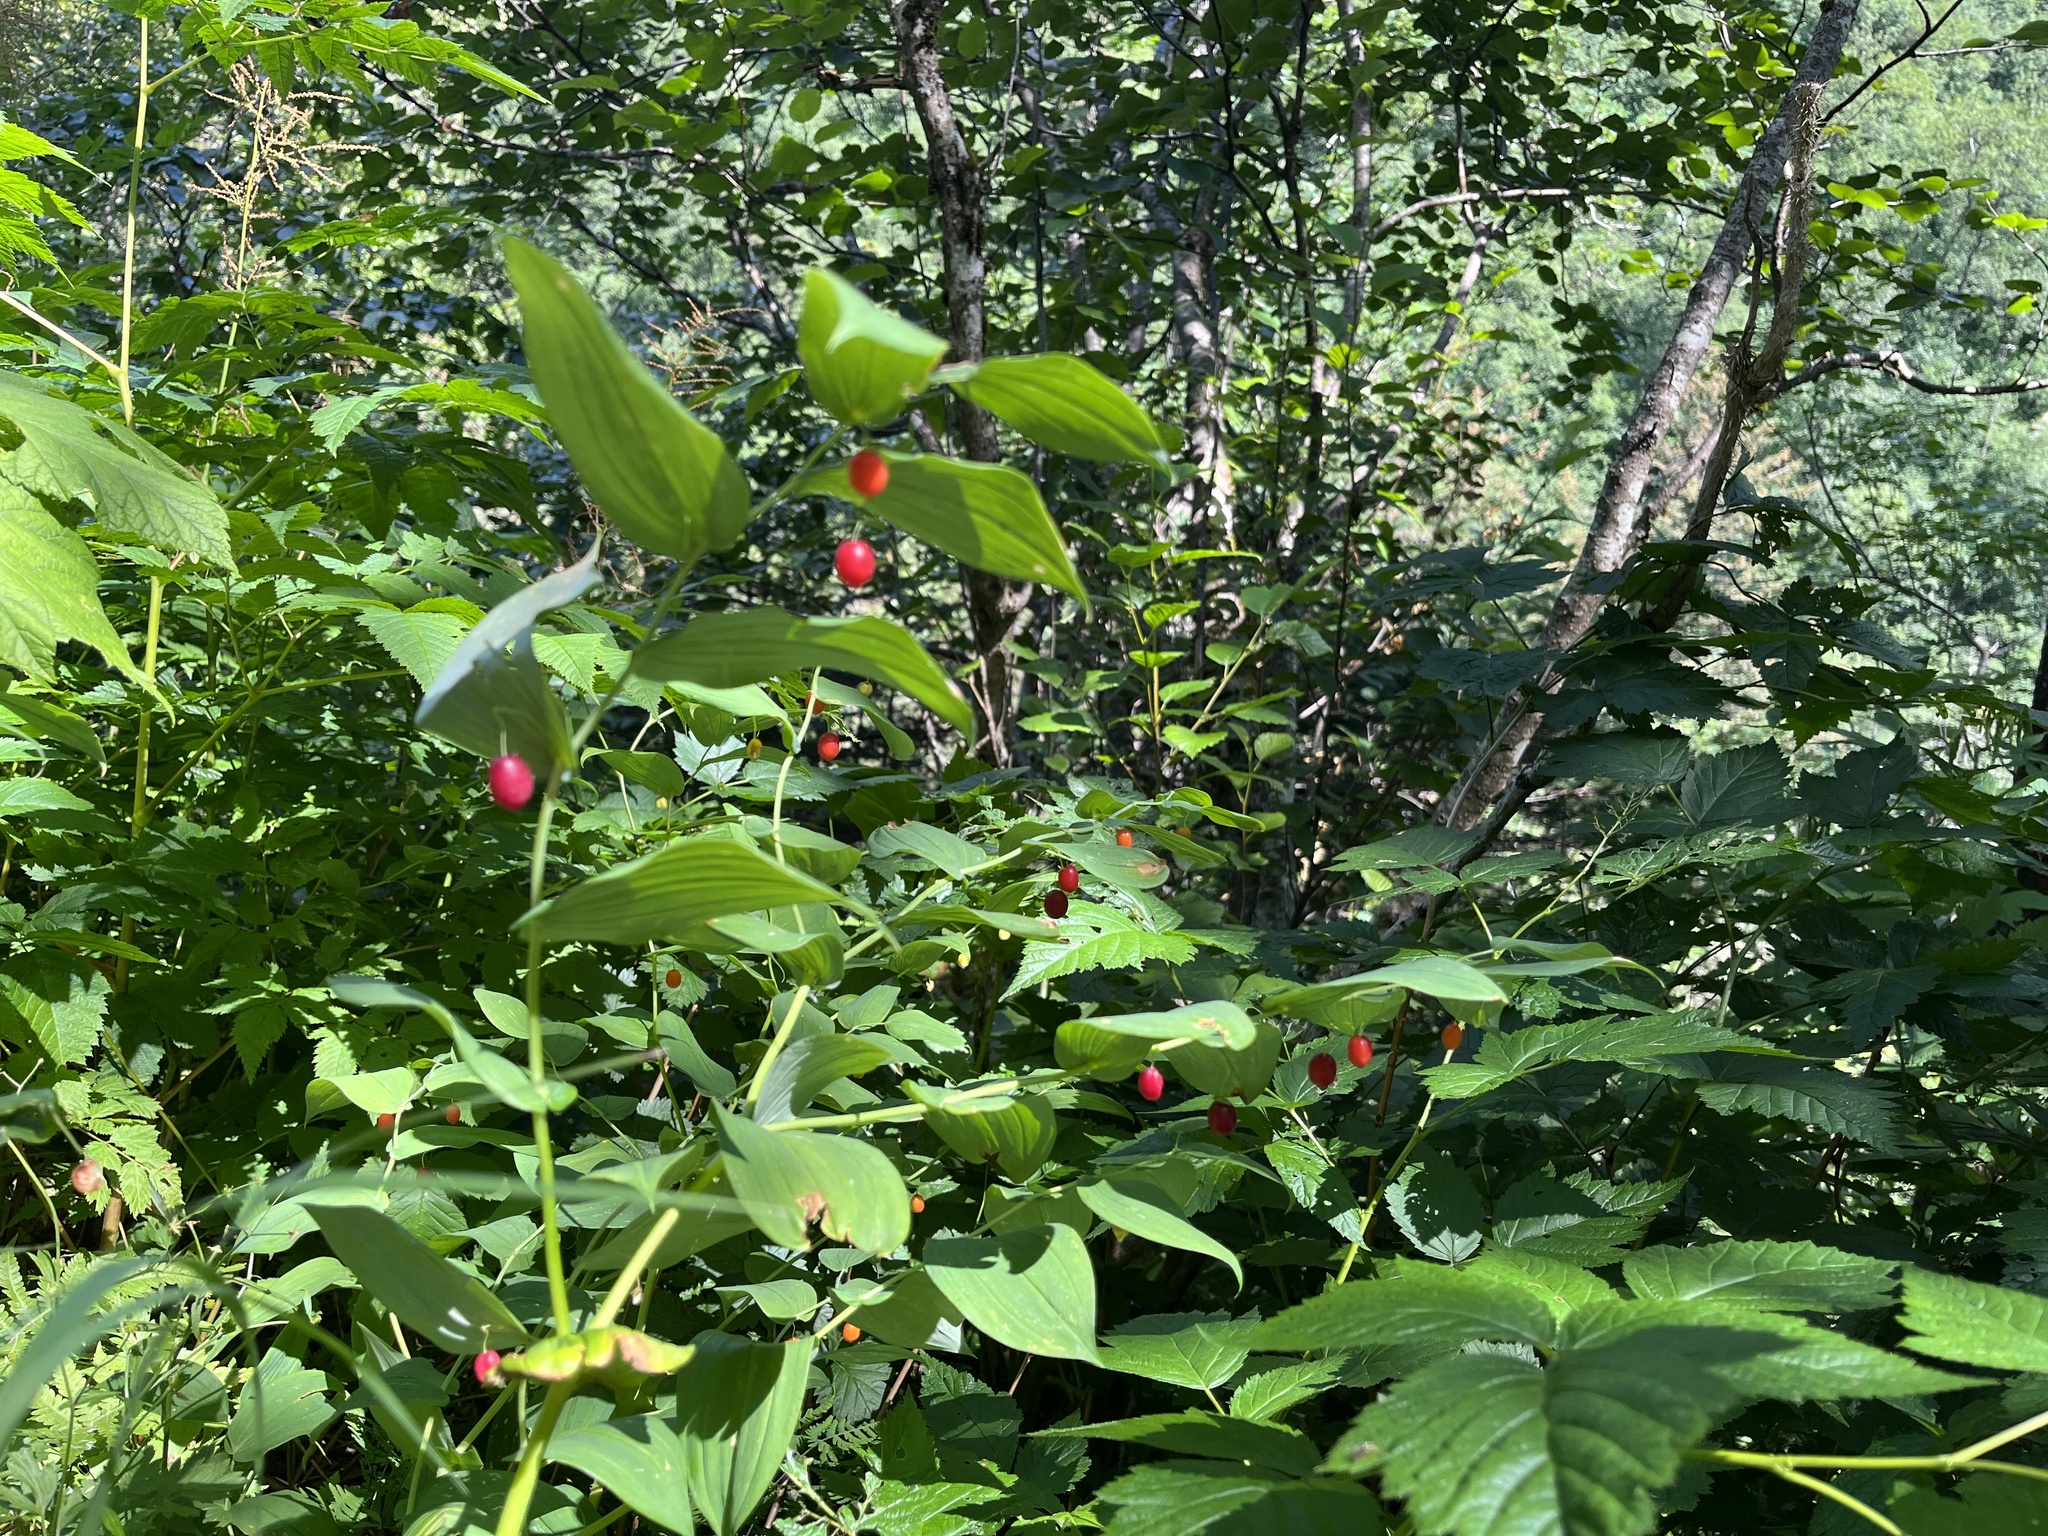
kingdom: Plantae
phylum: Tracheophyta
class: Liliopsida
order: Liliales
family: Liliaceae
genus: Streptopus
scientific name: Streptopus amplexifolius
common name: Clasp twisted stalk
